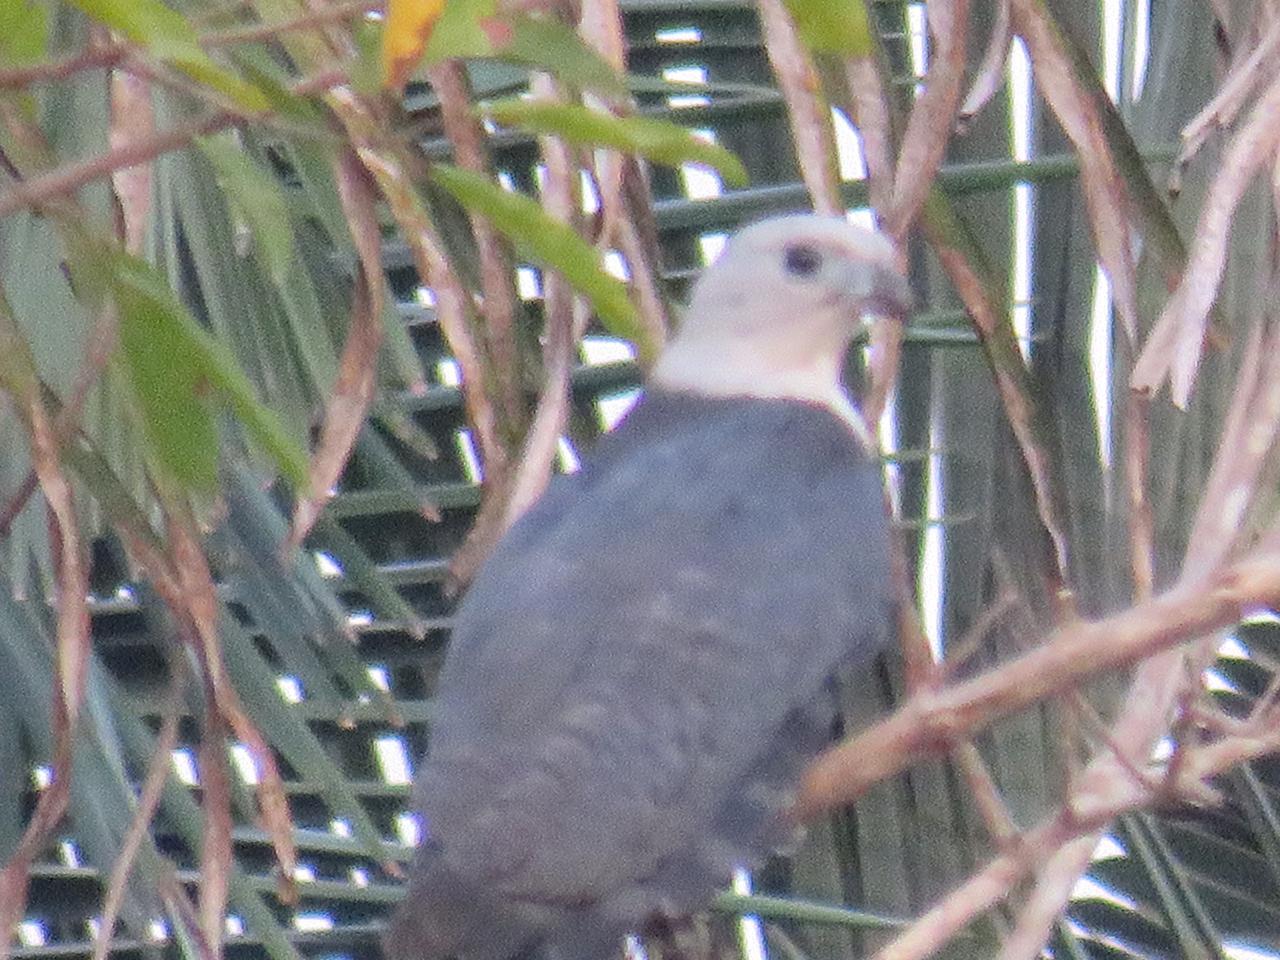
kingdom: Animalia
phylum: Chordata
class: Aves
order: Falconiformes
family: Falconidae
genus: Daptrius
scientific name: Daptrius
